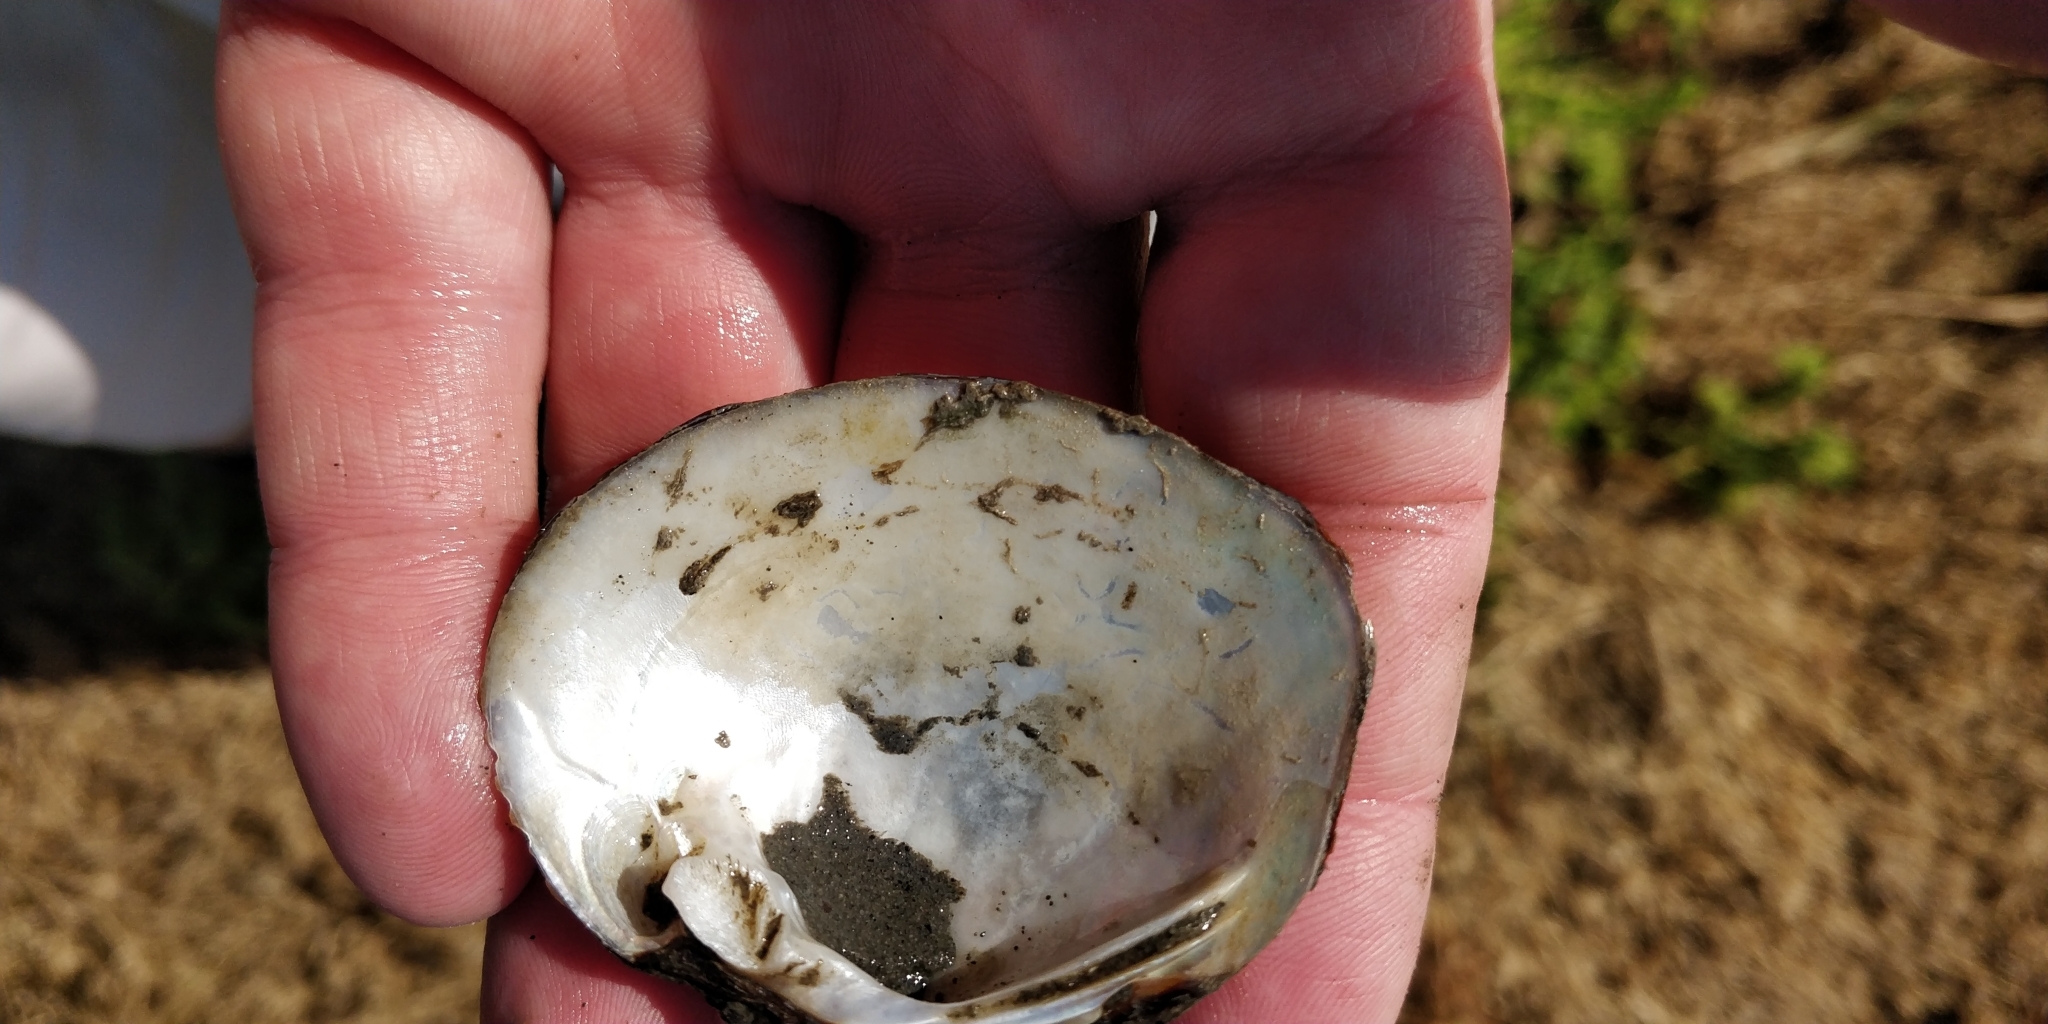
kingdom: Animalia
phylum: Mollusca
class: Bivalvia
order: Unionida
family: Unionidae
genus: Cyclonaias
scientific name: Cyclonaias pustulosa
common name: Pimpleback
